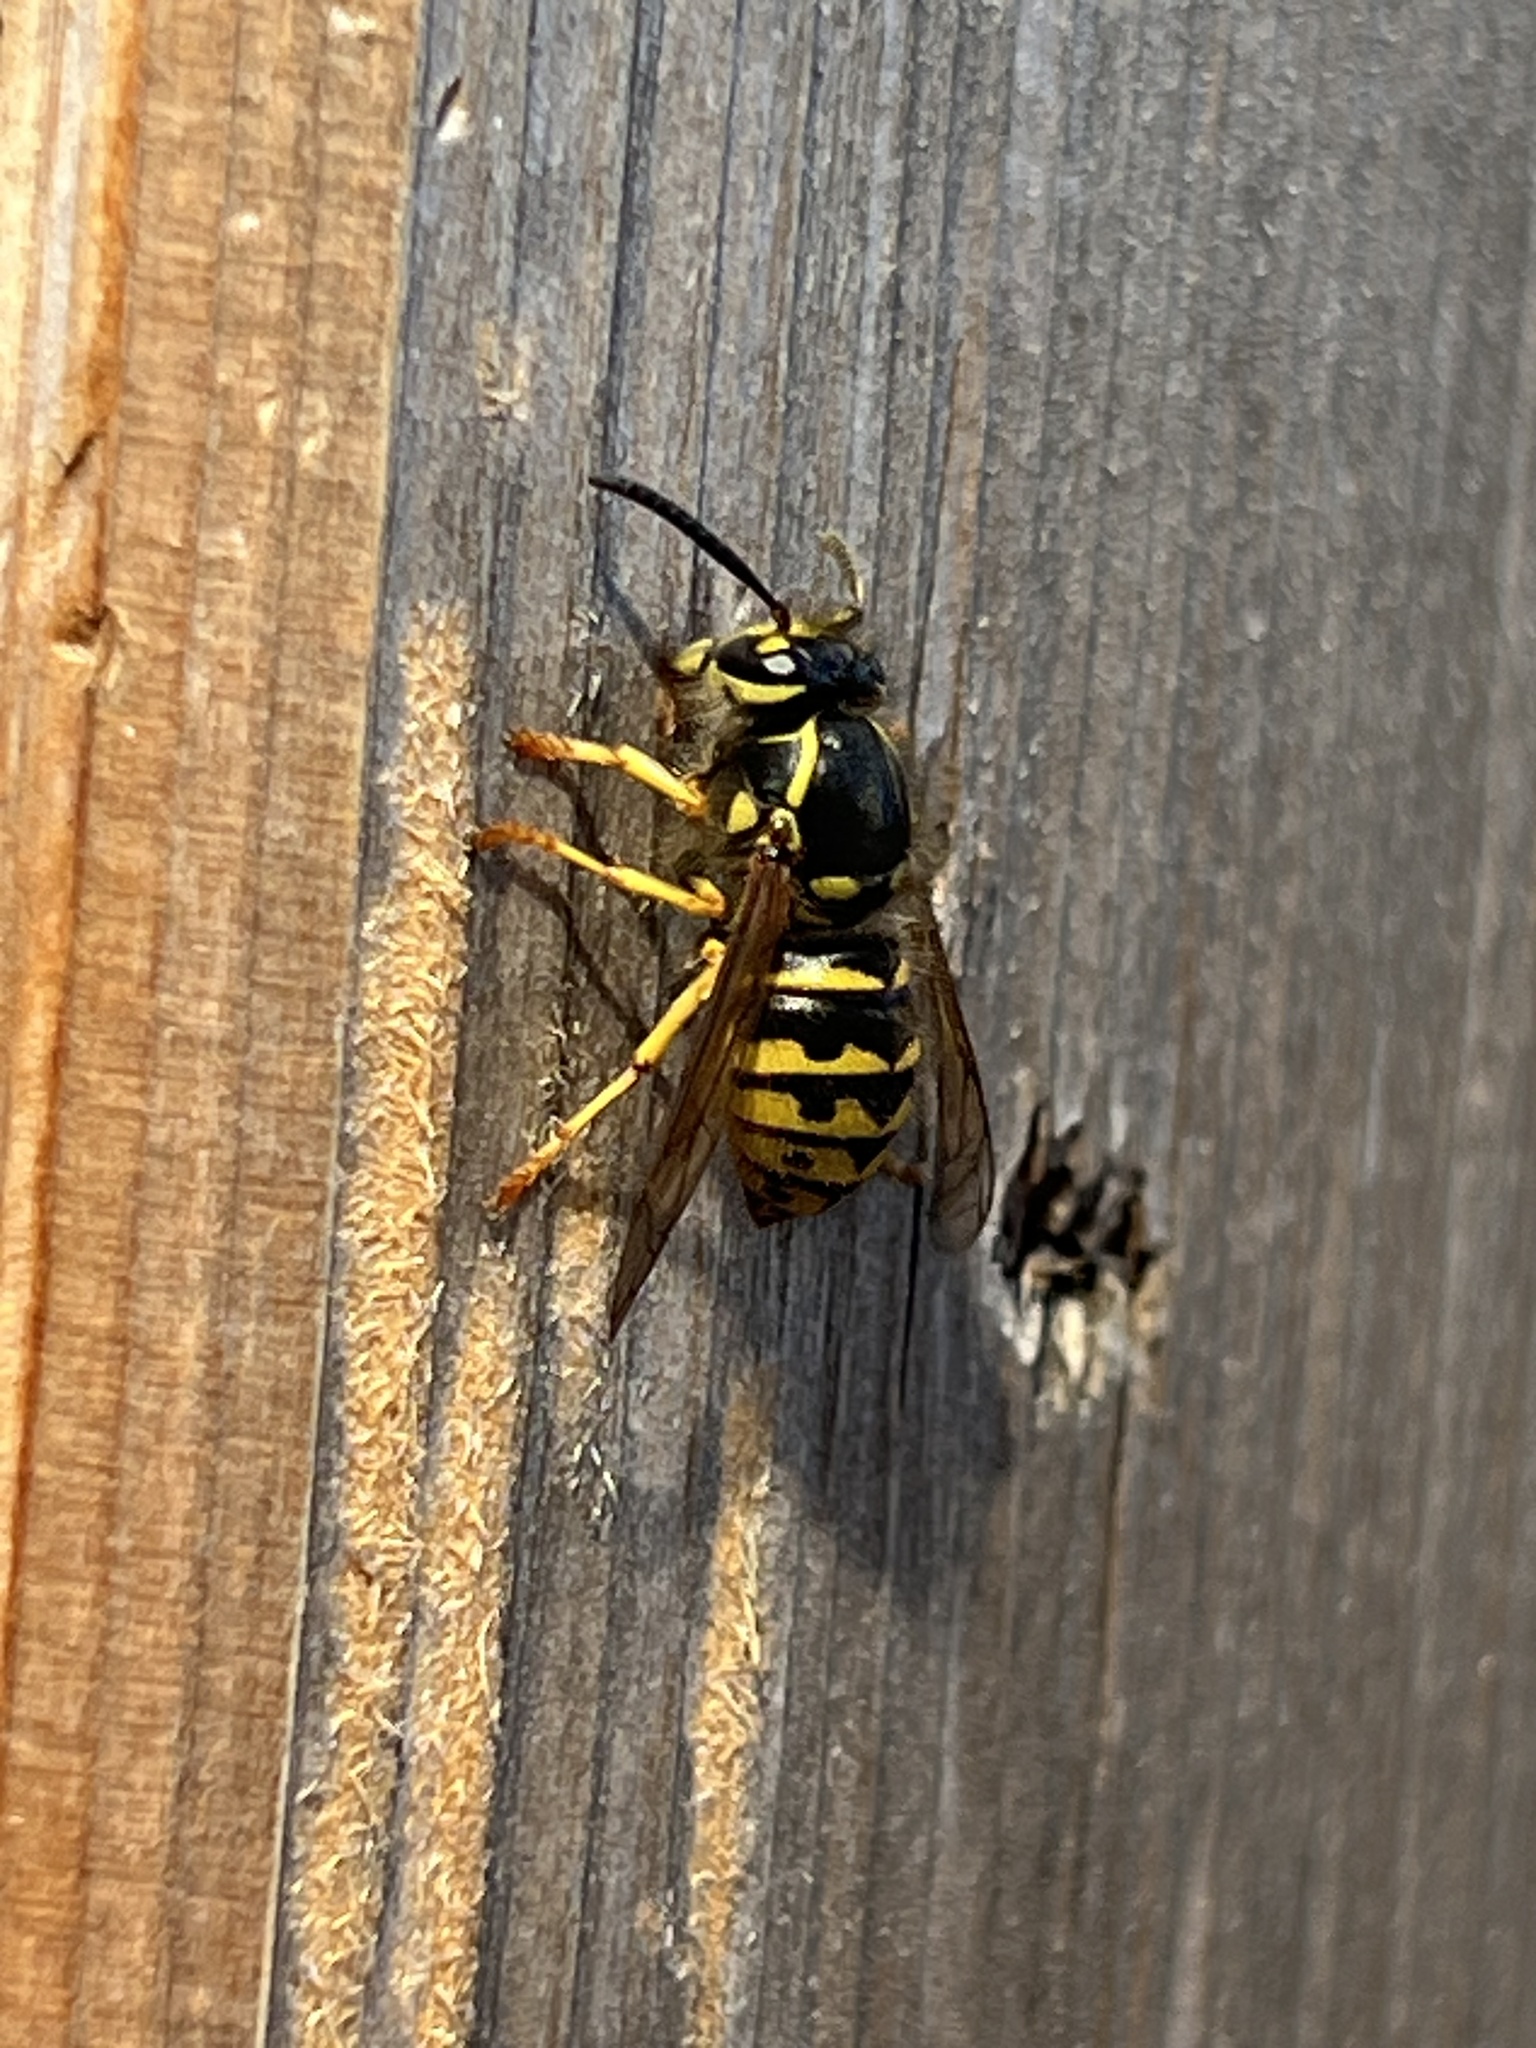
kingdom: Animalia
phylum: Arthropoda
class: Insecta
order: Hymenoptera
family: Vespidae
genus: Dolichovespula
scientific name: Dolichovespula arenaria
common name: Aerial yellowjacket
